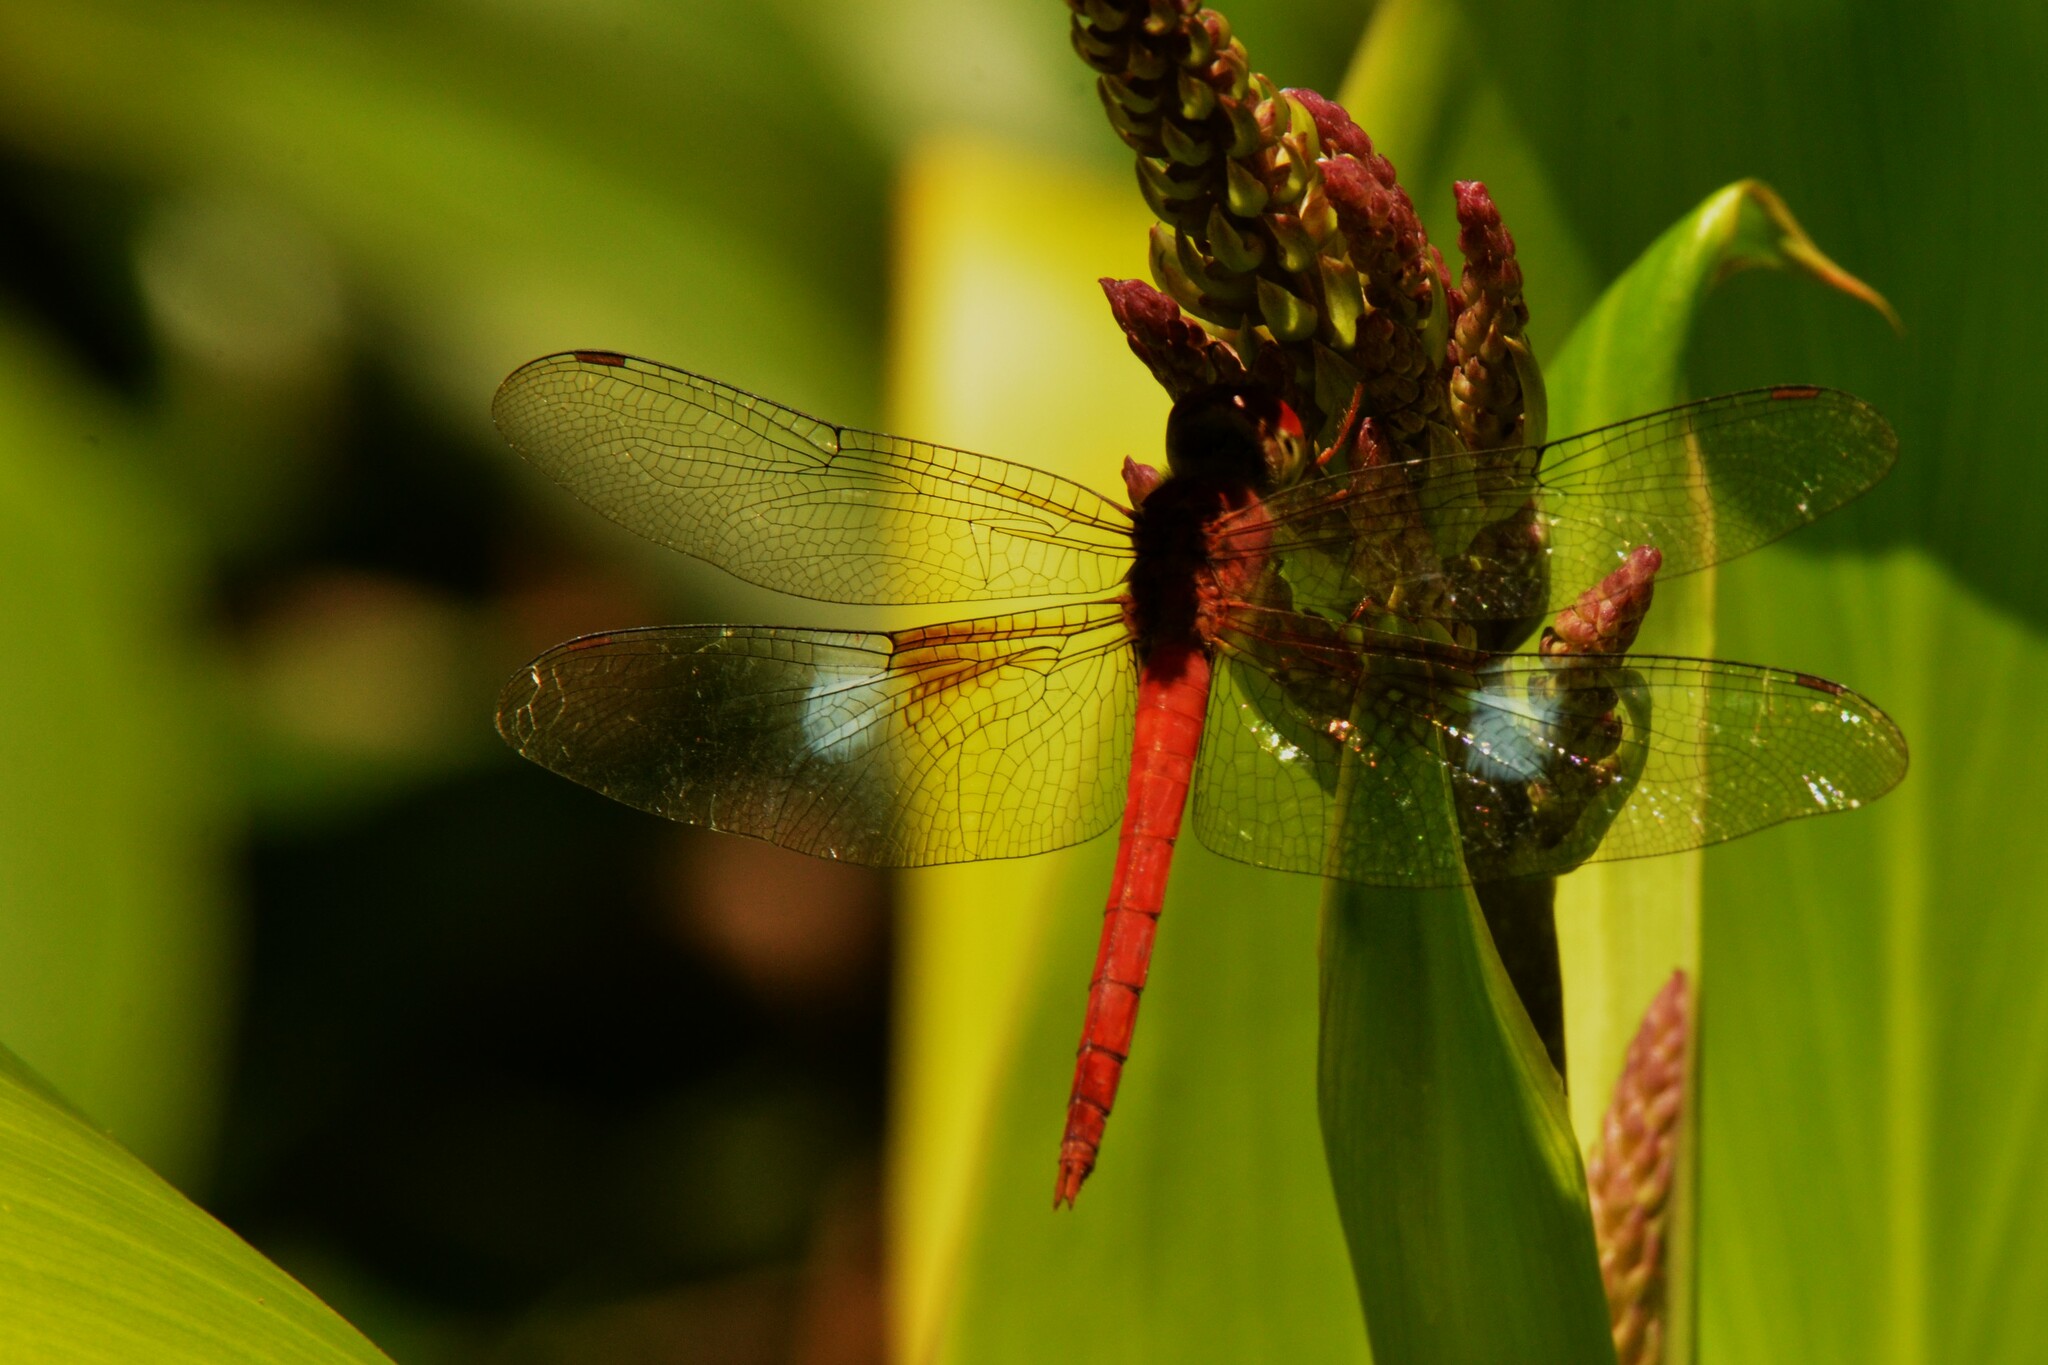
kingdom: Animalia
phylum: Arthropoda
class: Insecta
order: Odonata
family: Libellulidae
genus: Tholymis
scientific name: Tholymis tillarga
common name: Coral-tailed cloud wing
